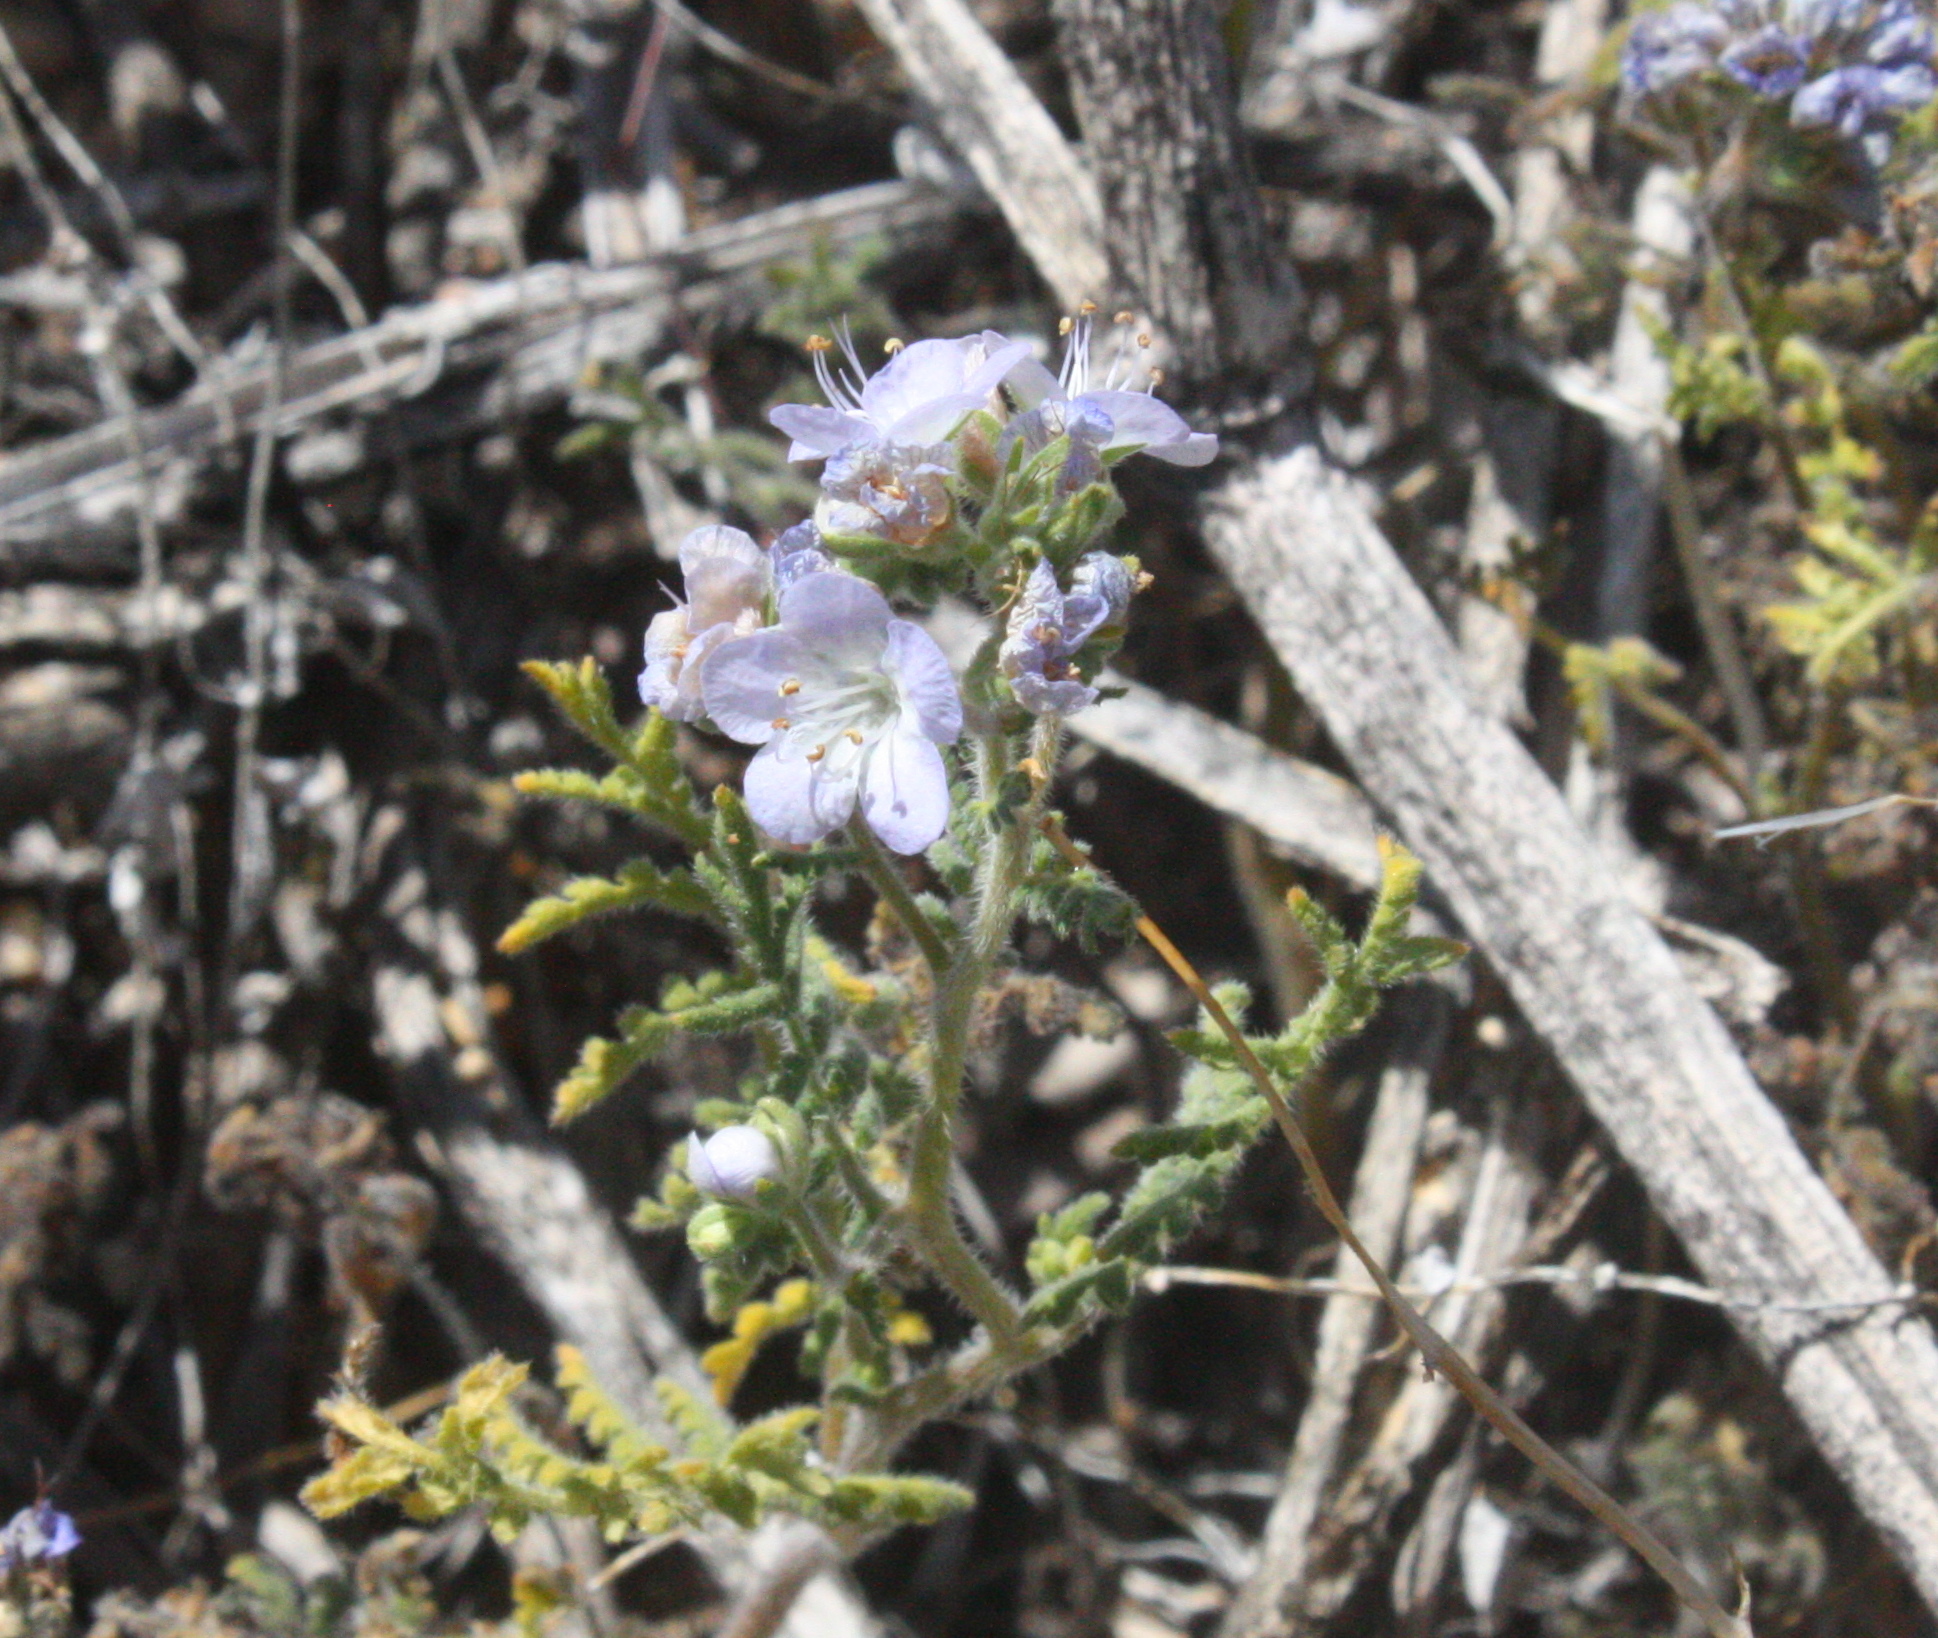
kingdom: Plantae
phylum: Tracheophyta
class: Magnoliopsida
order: Boraginales
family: Hydrophyllaceae
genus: Phacelia
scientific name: Phacelia distans
